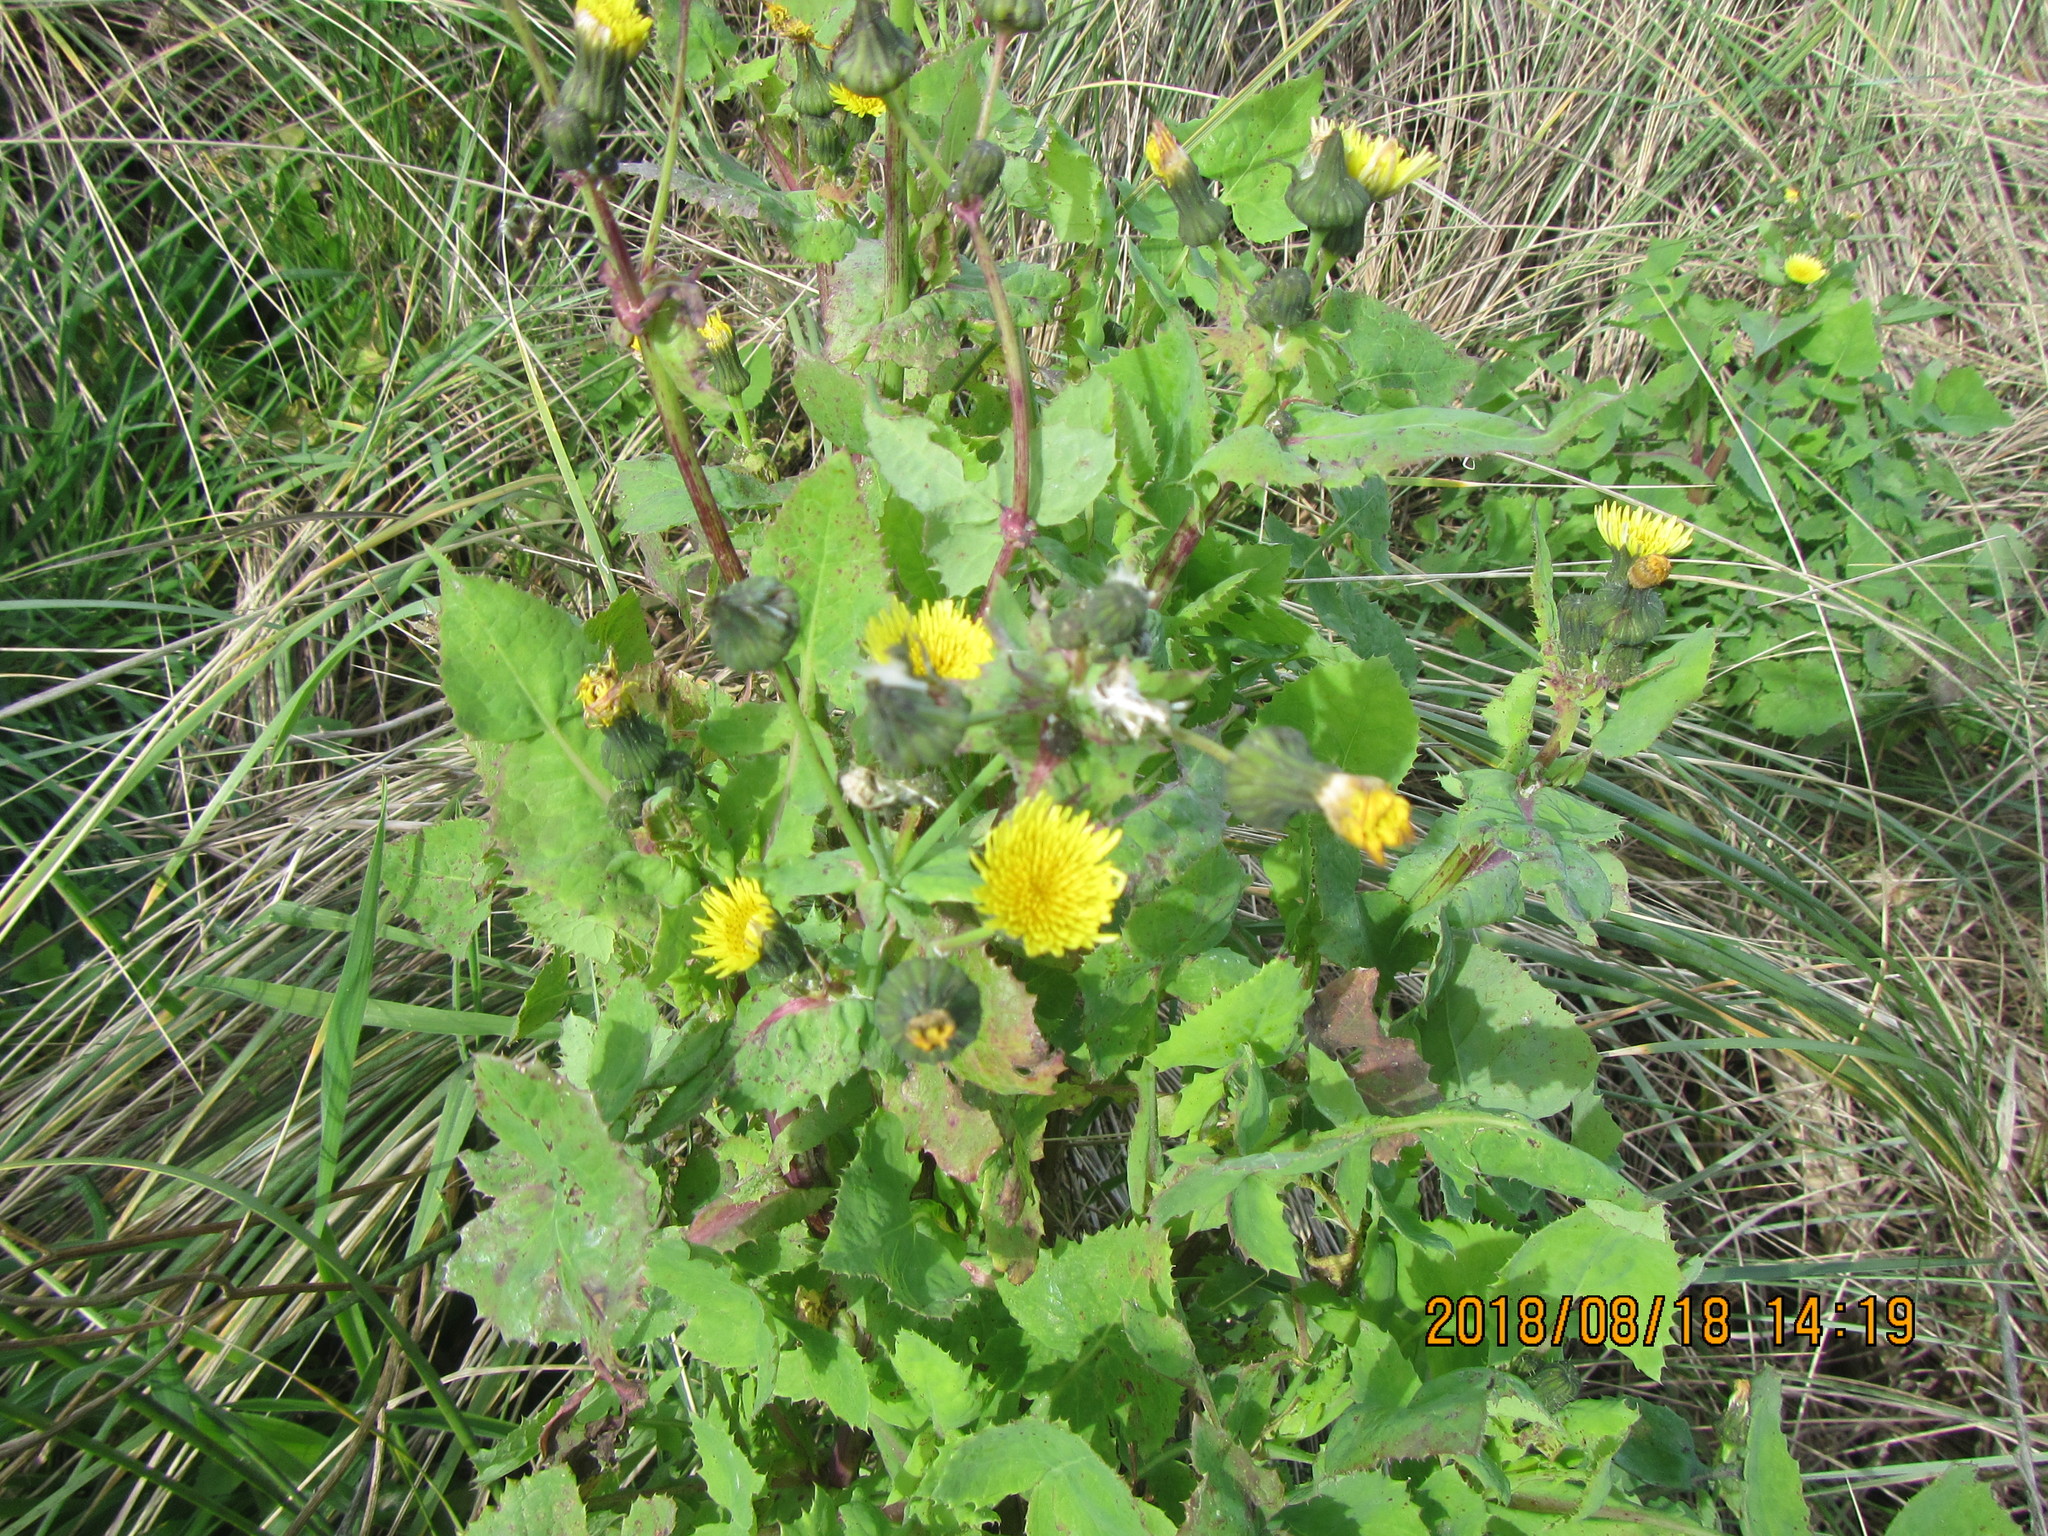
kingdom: Plantae
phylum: Tracheophyta
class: Magnoliopsida
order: Asterales
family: Asteraceae
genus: Sonchus
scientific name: Sonchus oleraceus
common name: Common sowthistle
